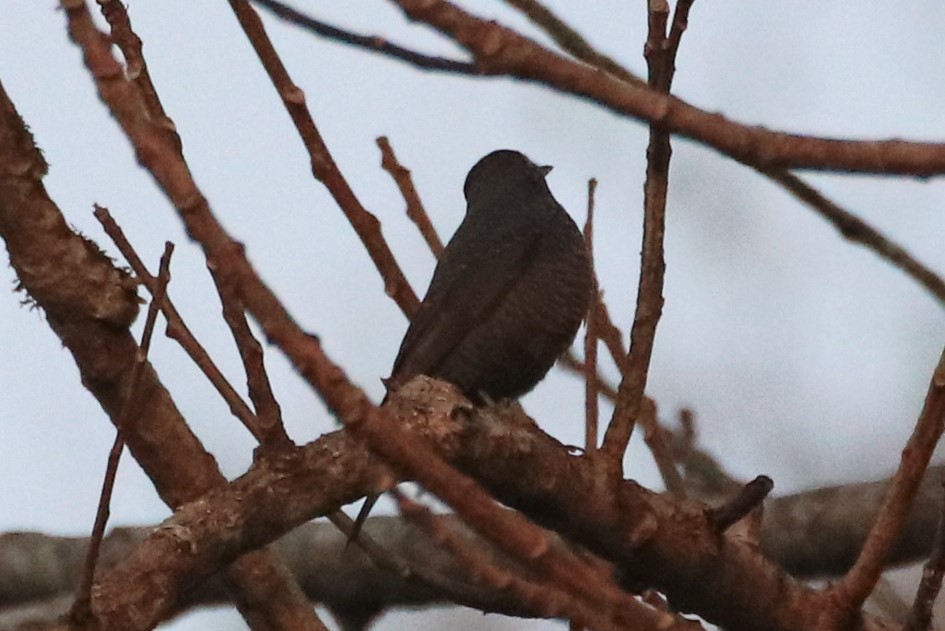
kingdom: Animalia
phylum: Chordata
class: Aves
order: Passeriformes
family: Muscicapidae
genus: Monticola
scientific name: Monticola solitarius
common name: Blue rock thrush
